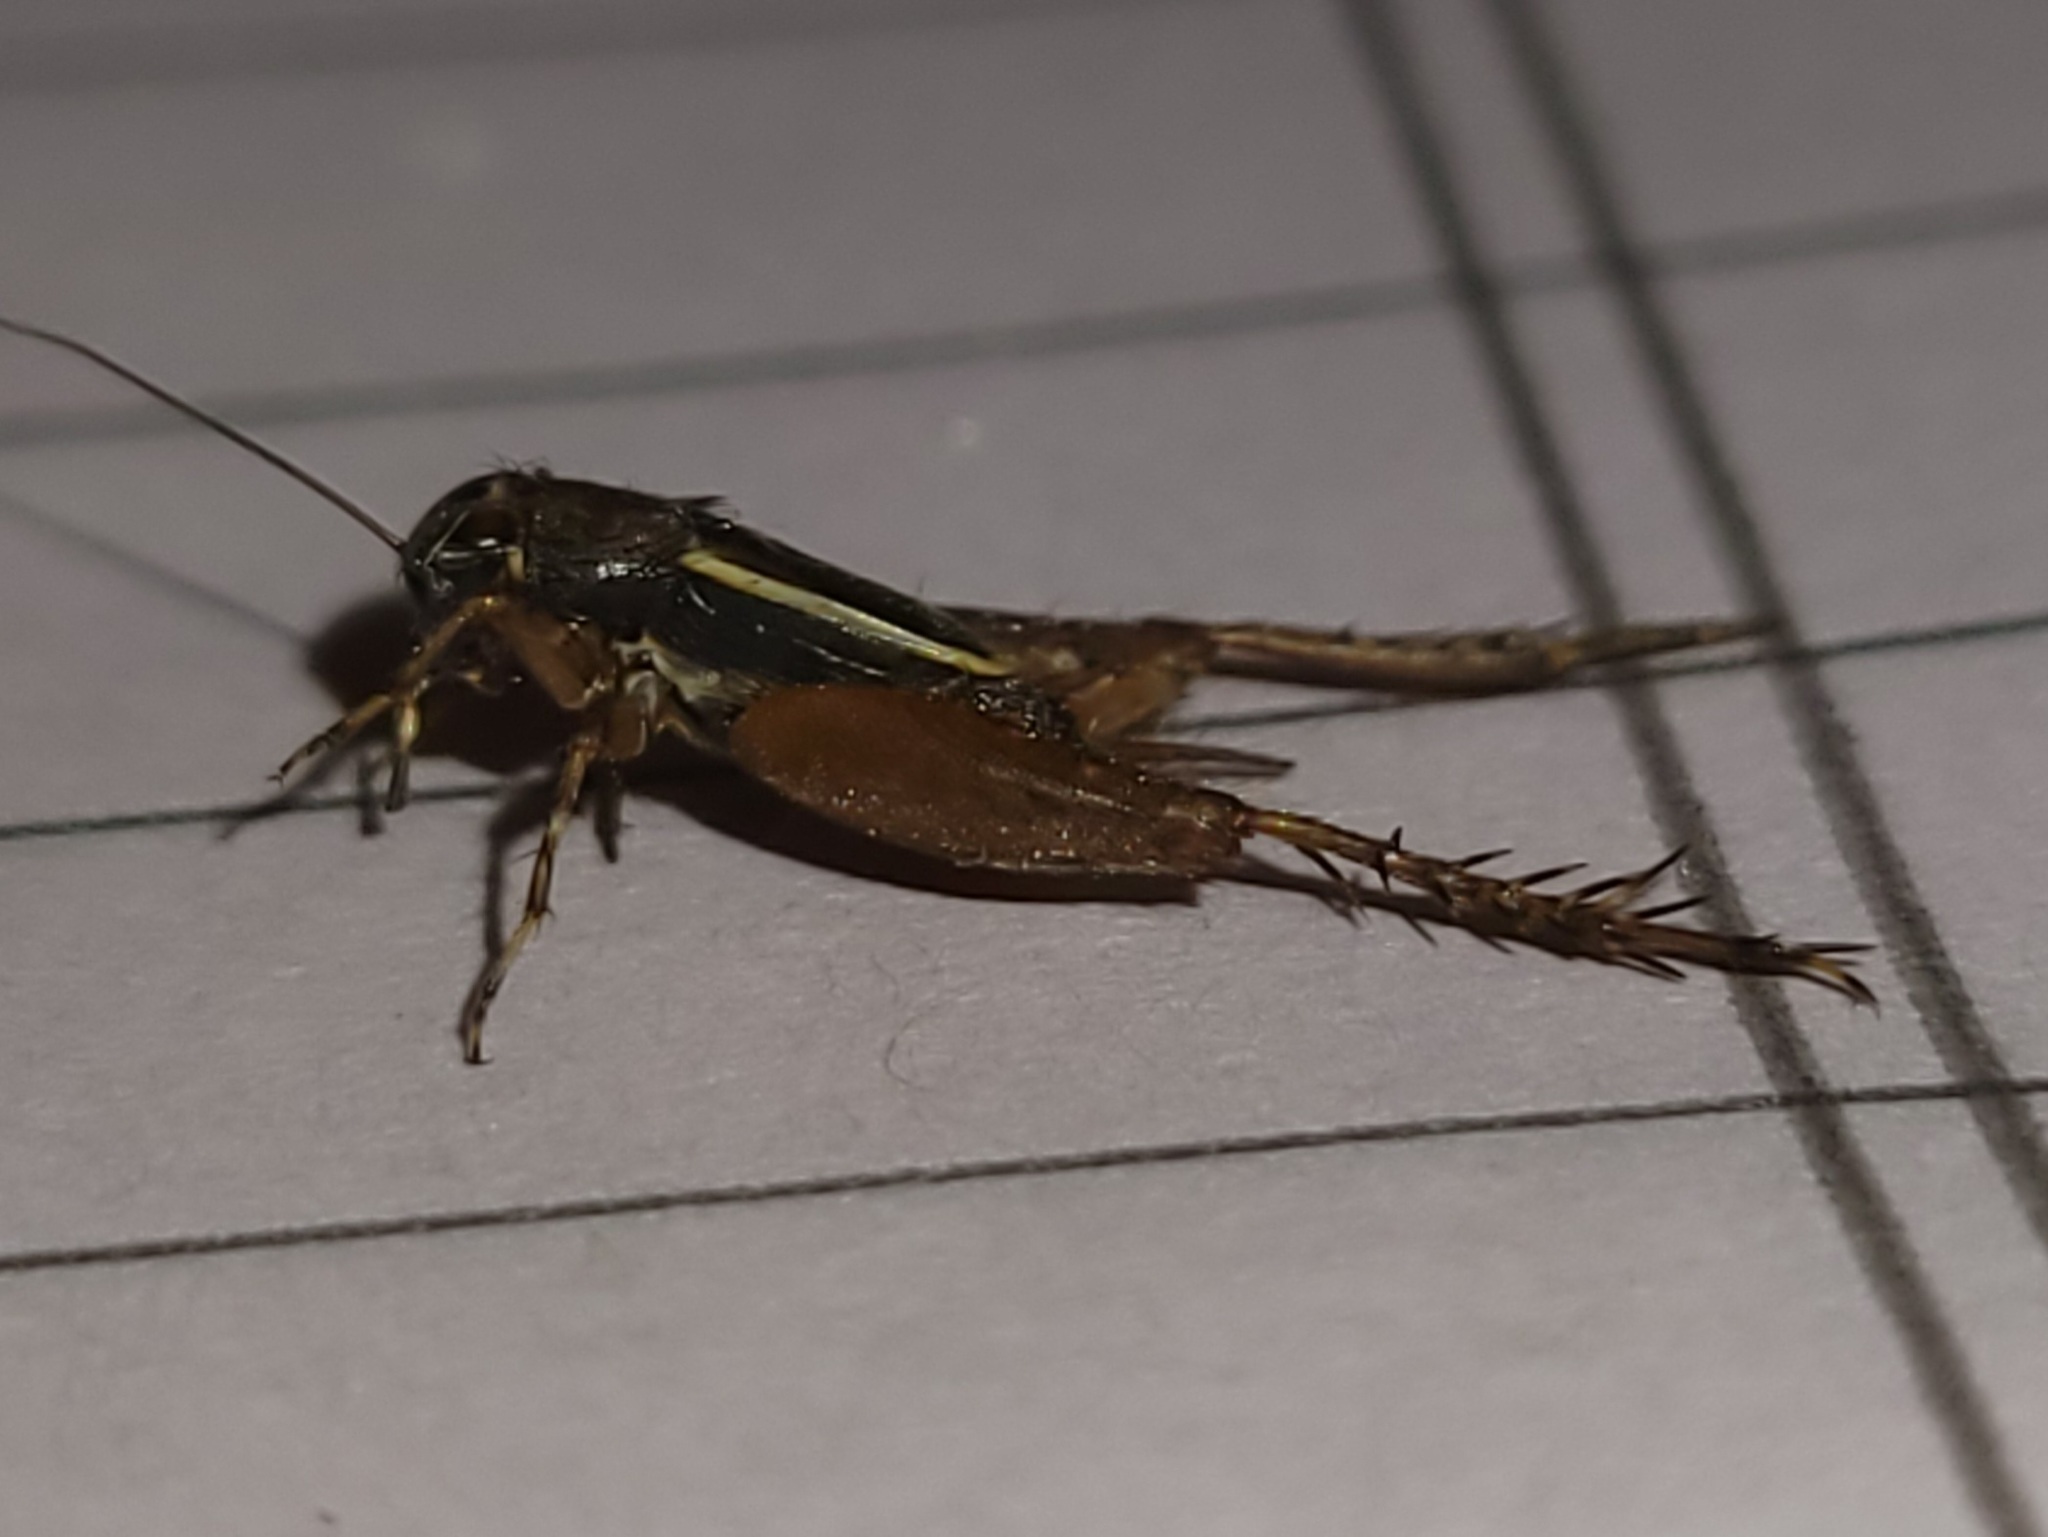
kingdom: Animalia
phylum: Arthropoda
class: Insecta
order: Orthoptera
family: Trigonidiidae
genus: Pictonemobius
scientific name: Pictonemobius arenicola
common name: Sandhills ground cricket
